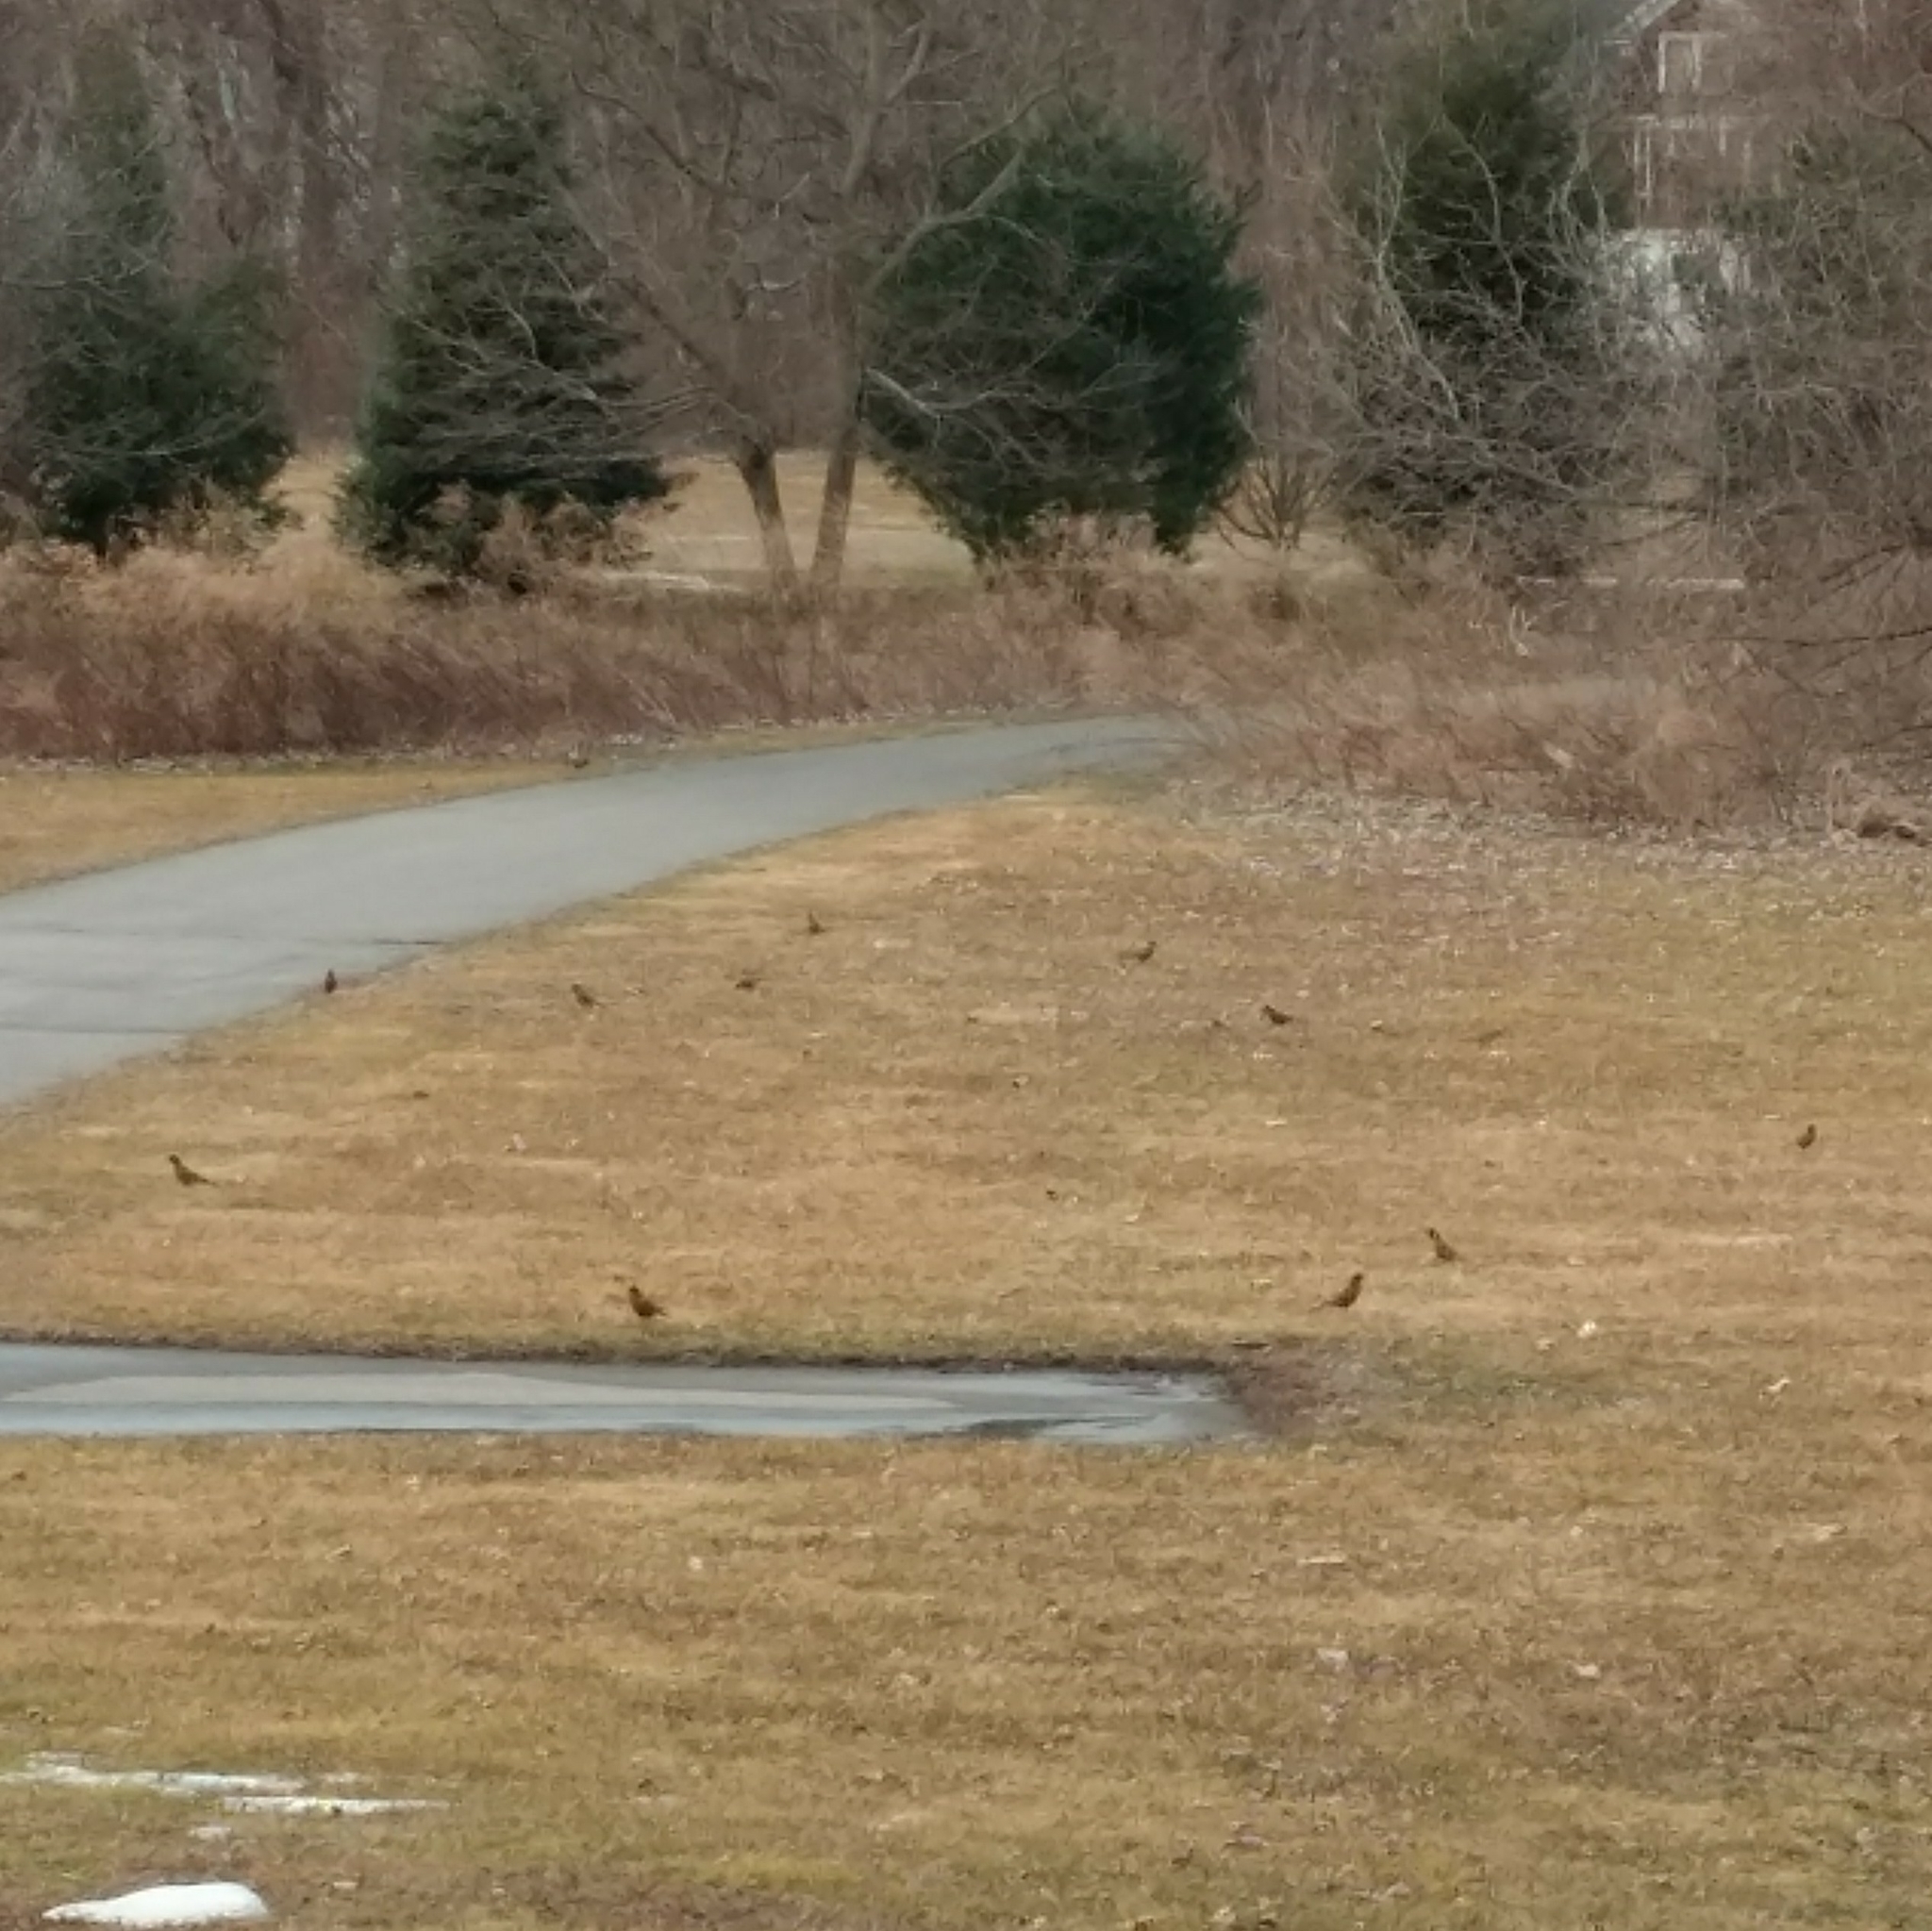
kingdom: Animalia
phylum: Chordata
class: Aves
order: Passeriformes
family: Turdidae
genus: Turdus
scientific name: Turdus migratorius
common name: American robin
